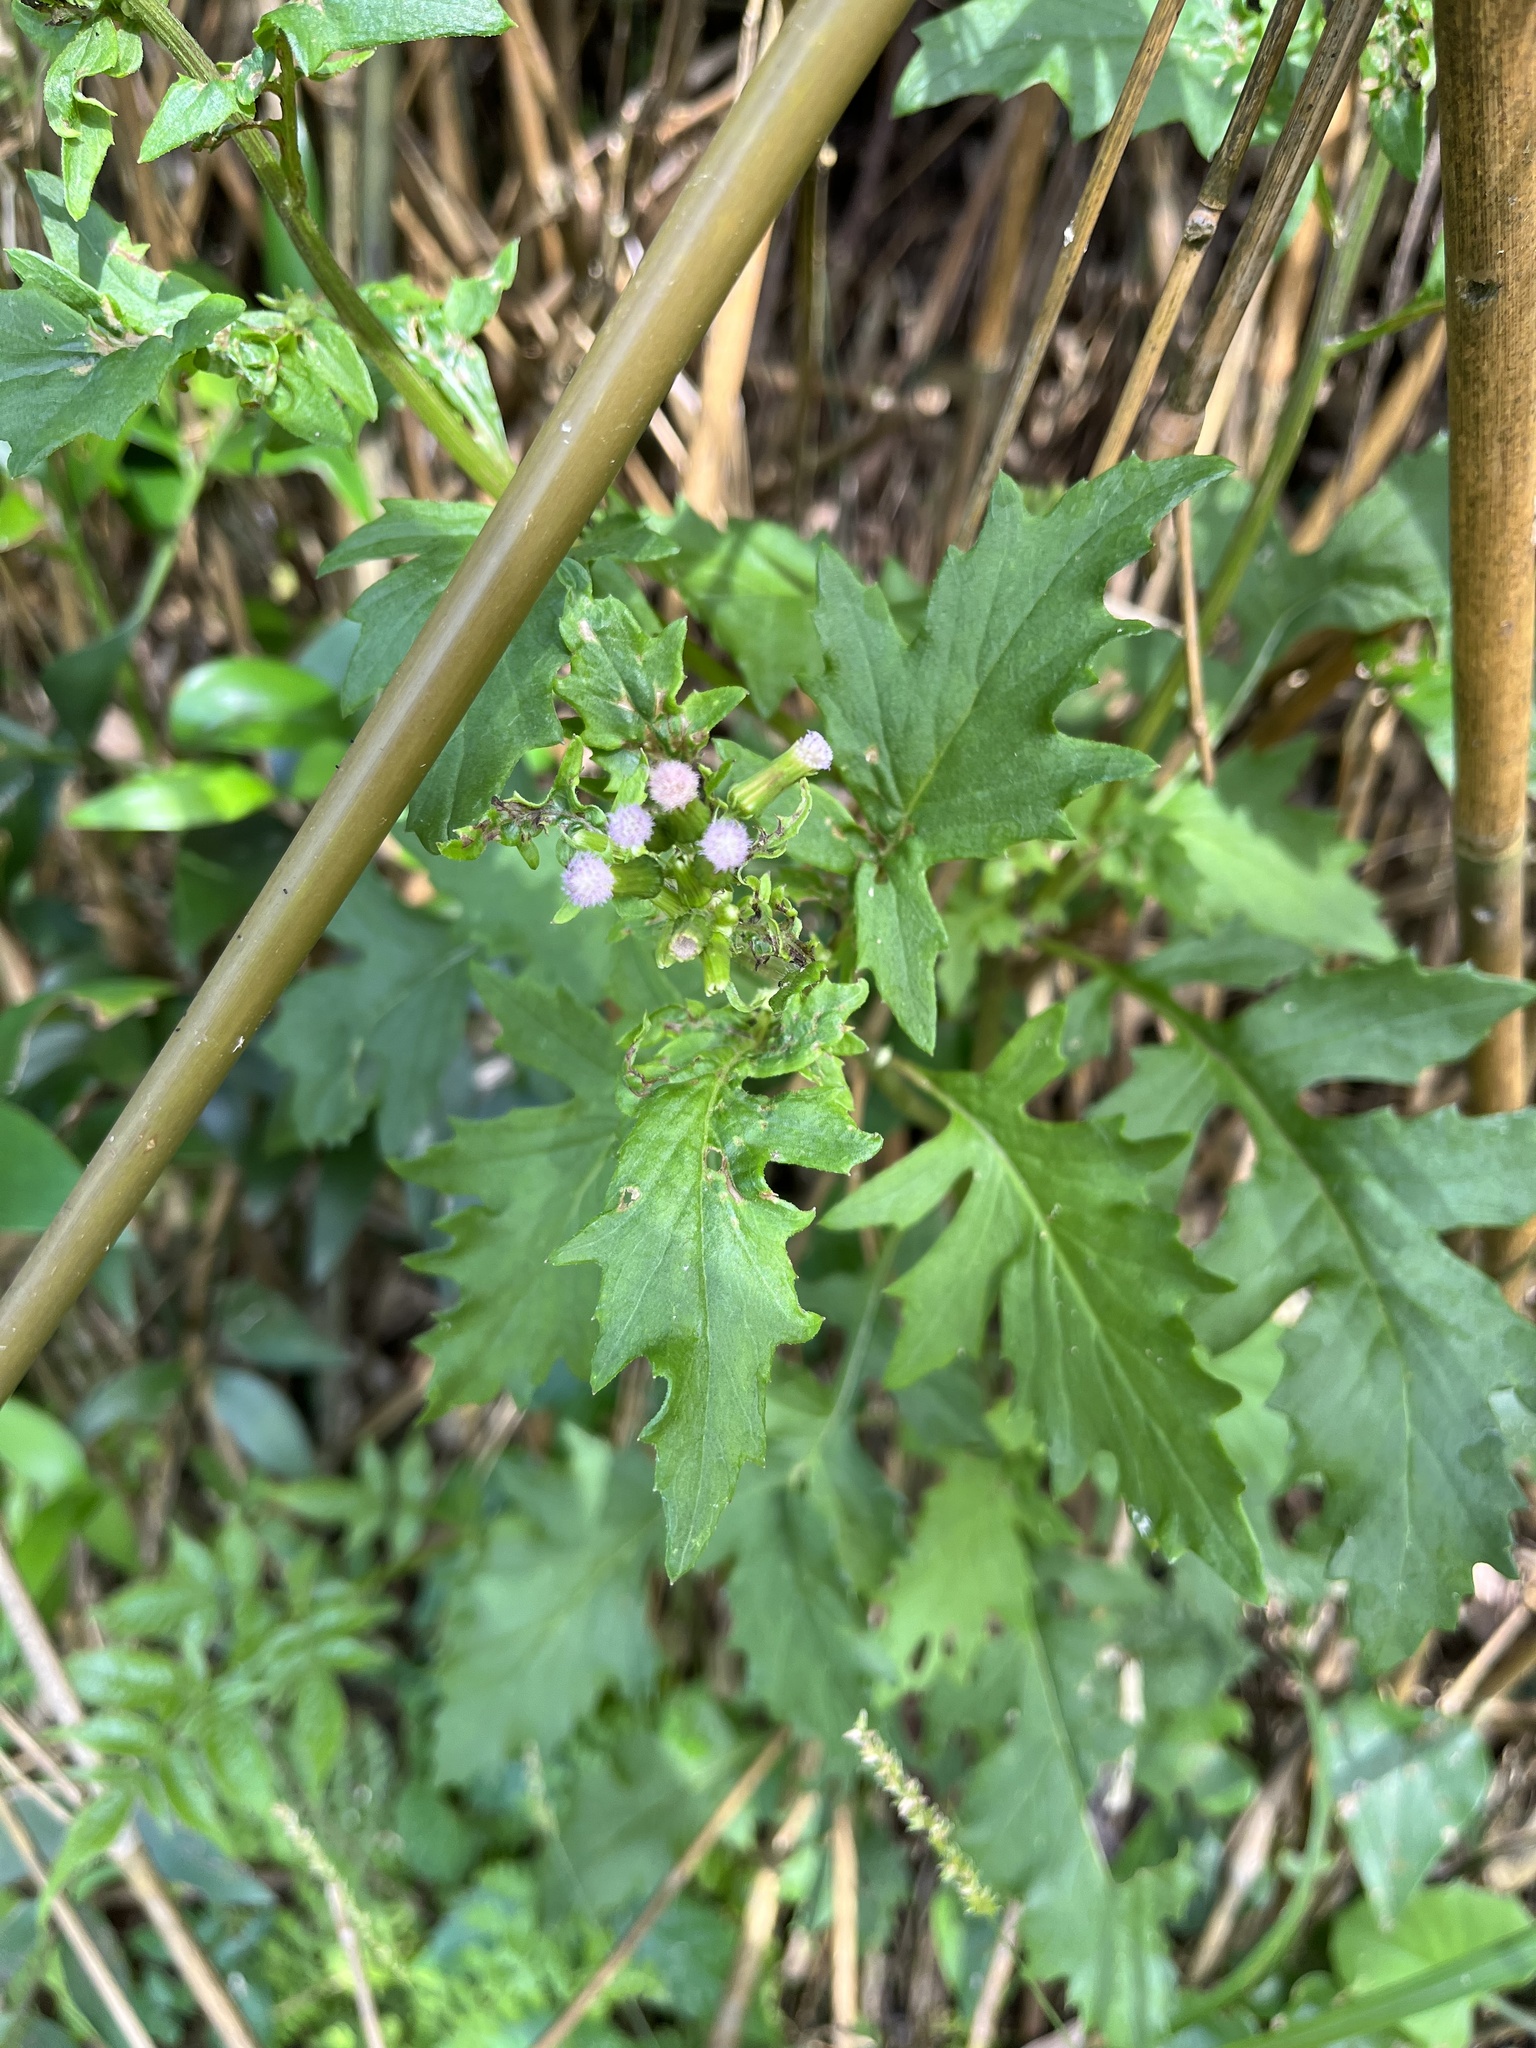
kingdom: Plantae
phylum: Tracheophyta
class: Magnoliopsida
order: Asterales
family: Asteraceae
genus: Erechtites
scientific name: Erechtites valerianifolius
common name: Tropical burnweed
